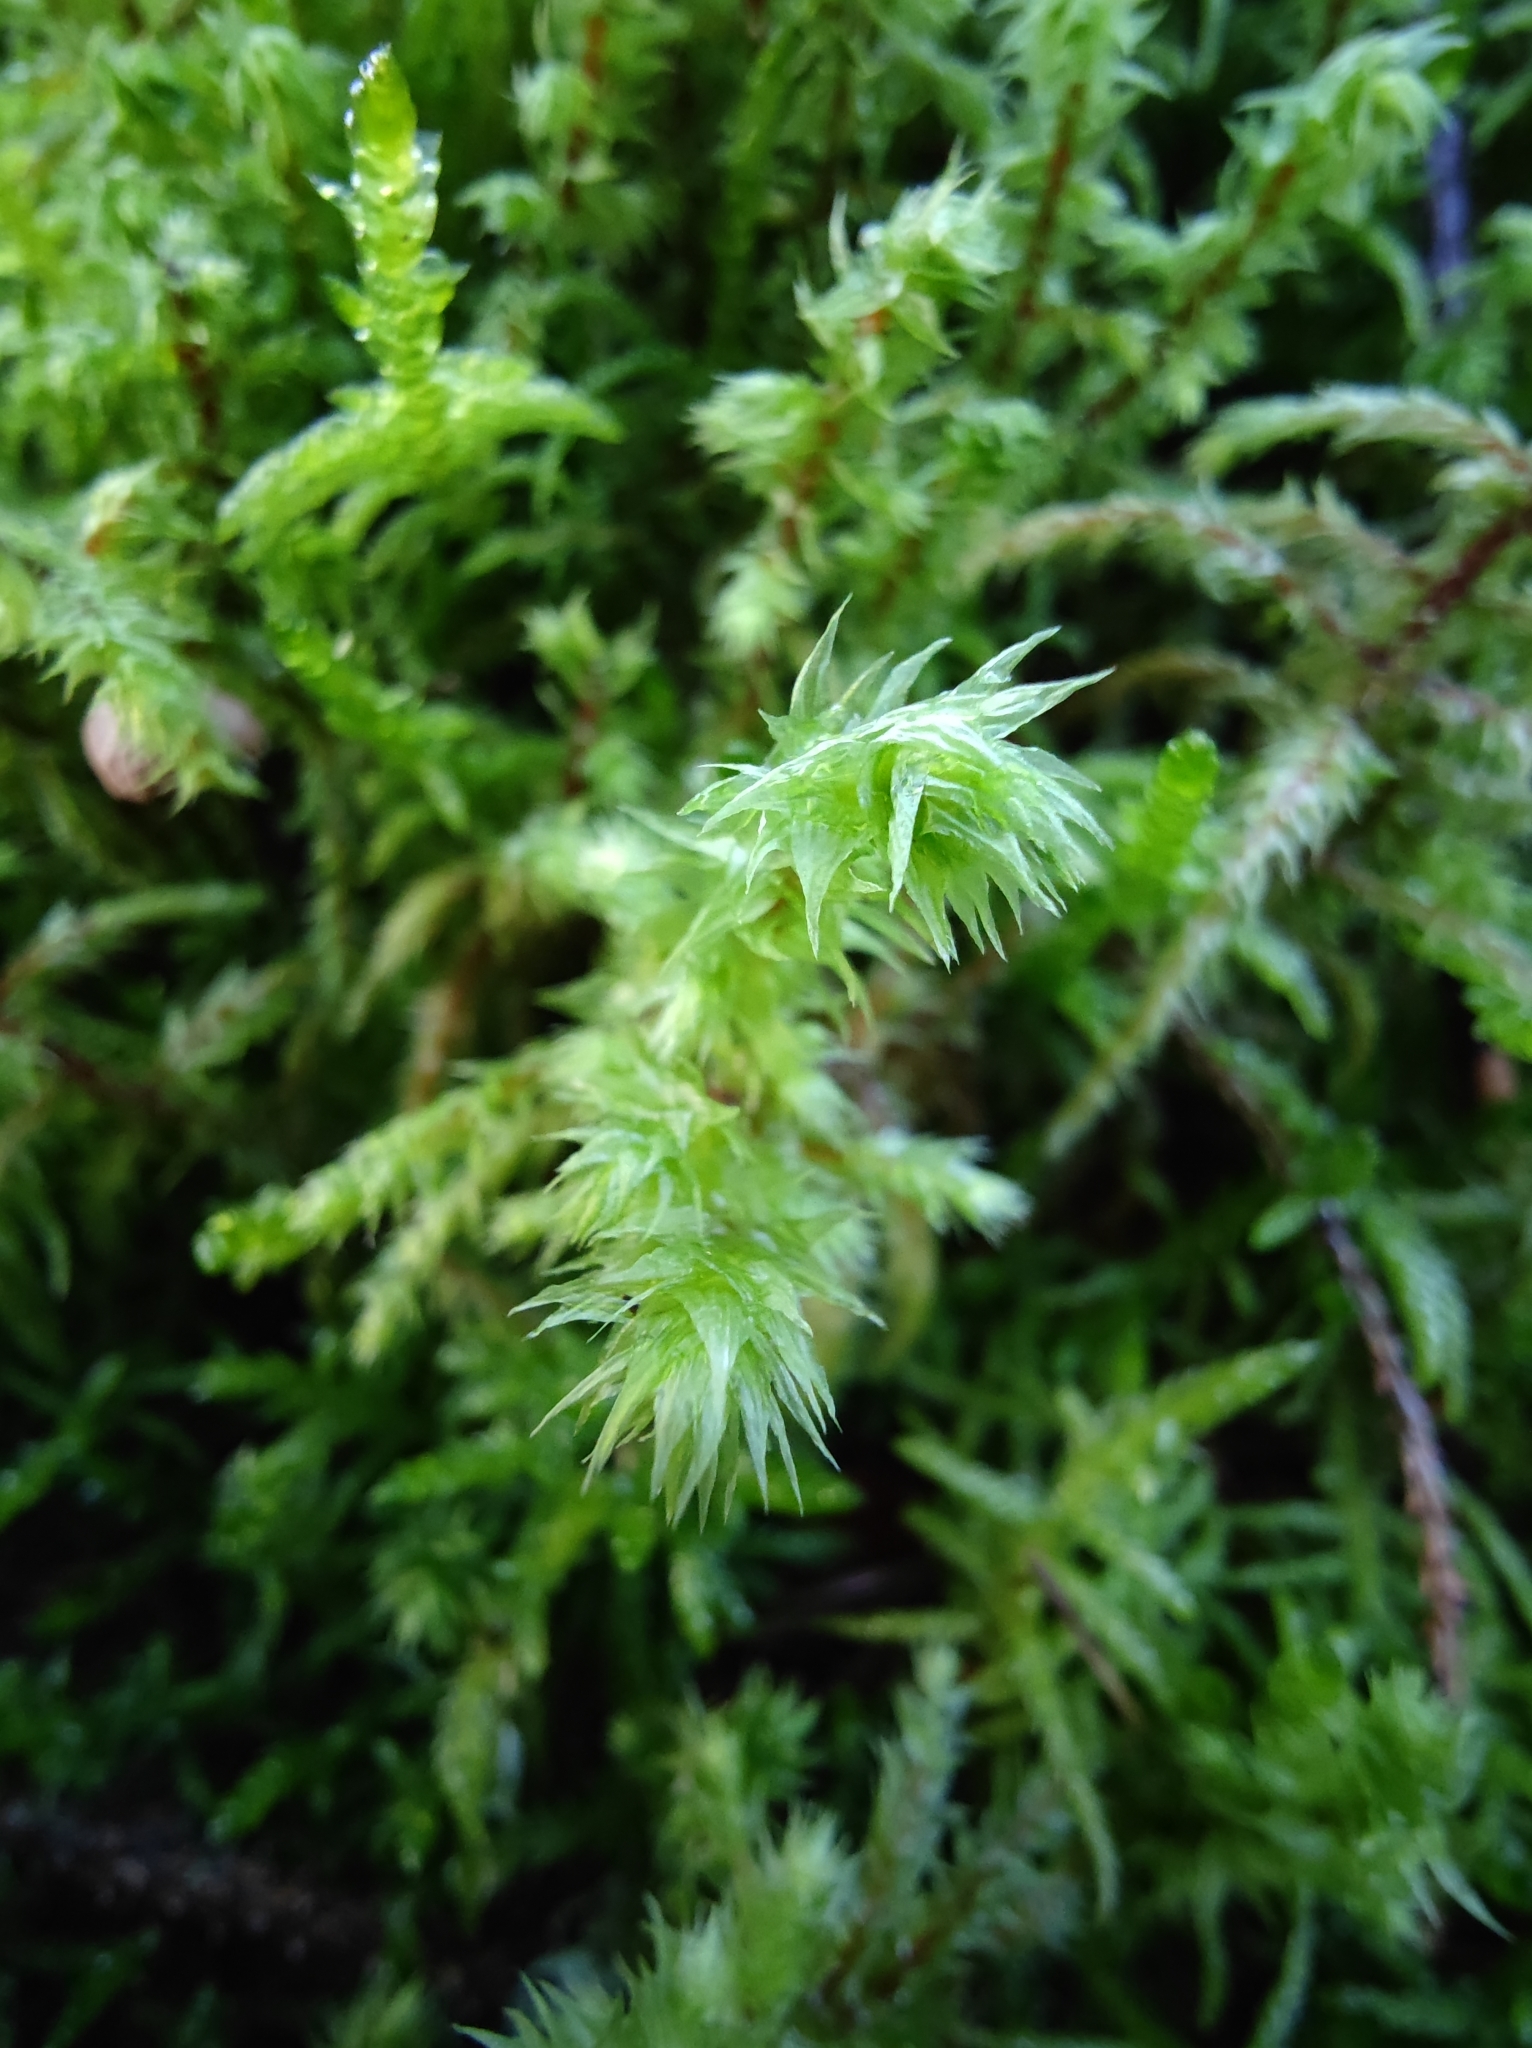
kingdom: Plantae
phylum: Bryophyta
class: Bryopsida
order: Hypnales
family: Hylocomiaceae
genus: Hylocomiadelphus
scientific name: Hylocomiadelphus triquetrus
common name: Rough goose neck moss
